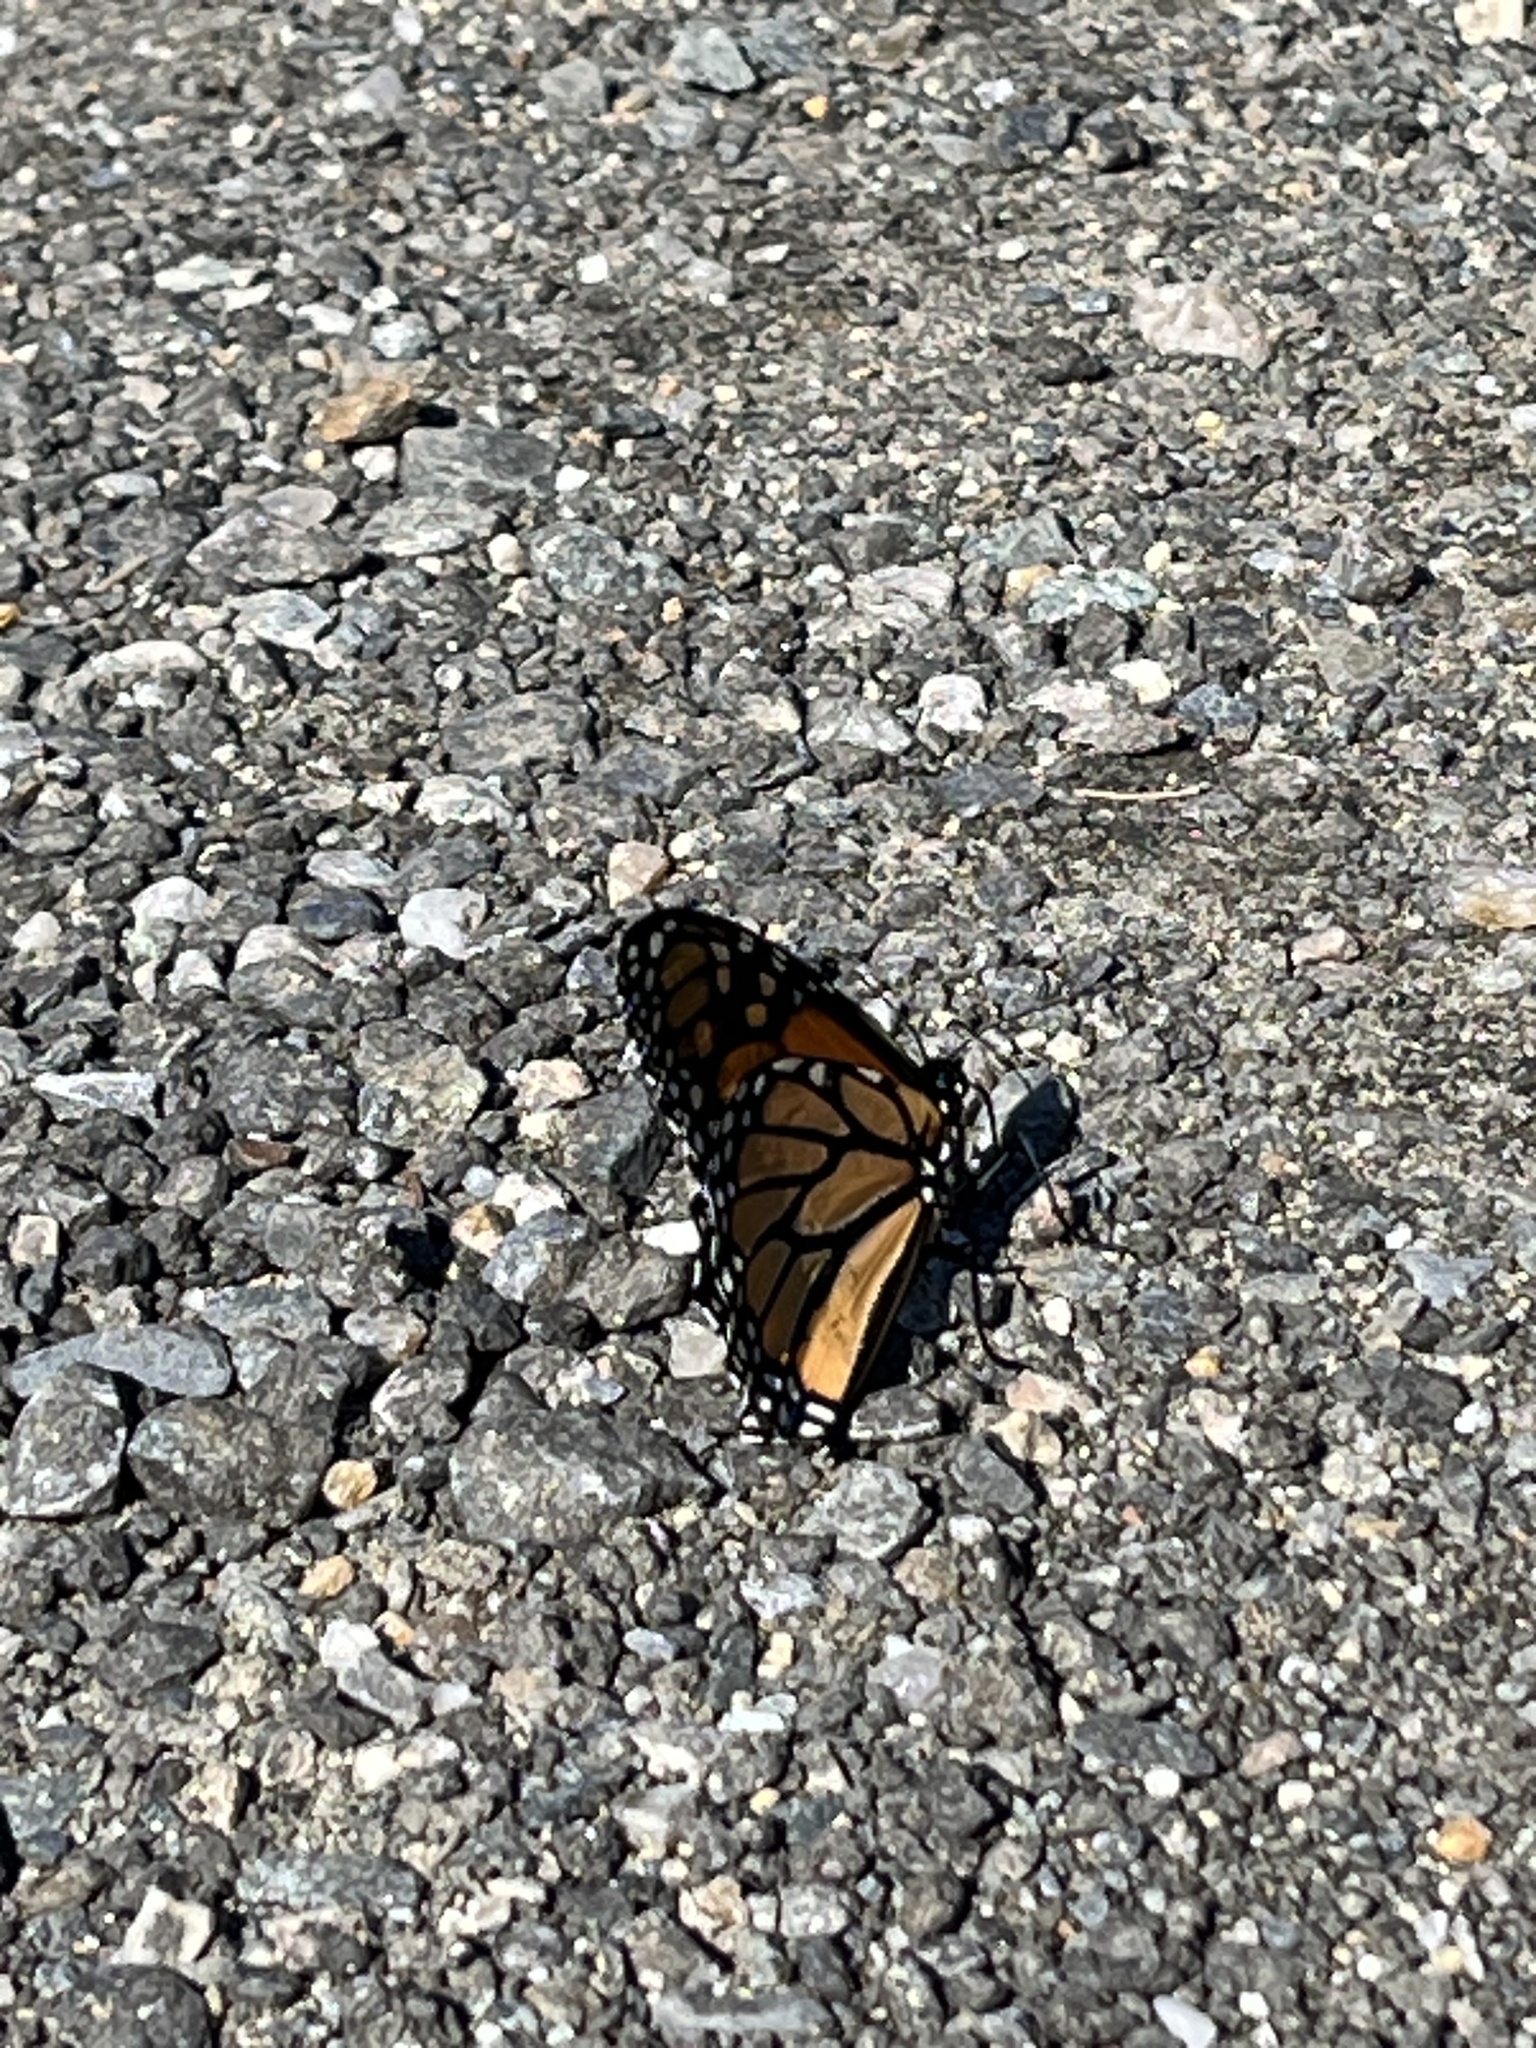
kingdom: Animalia
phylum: Arthropoda
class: Insecta
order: Lepidoptera
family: Nymphalidae
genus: Danaus
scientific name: Danaus plexippus
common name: Monarch
